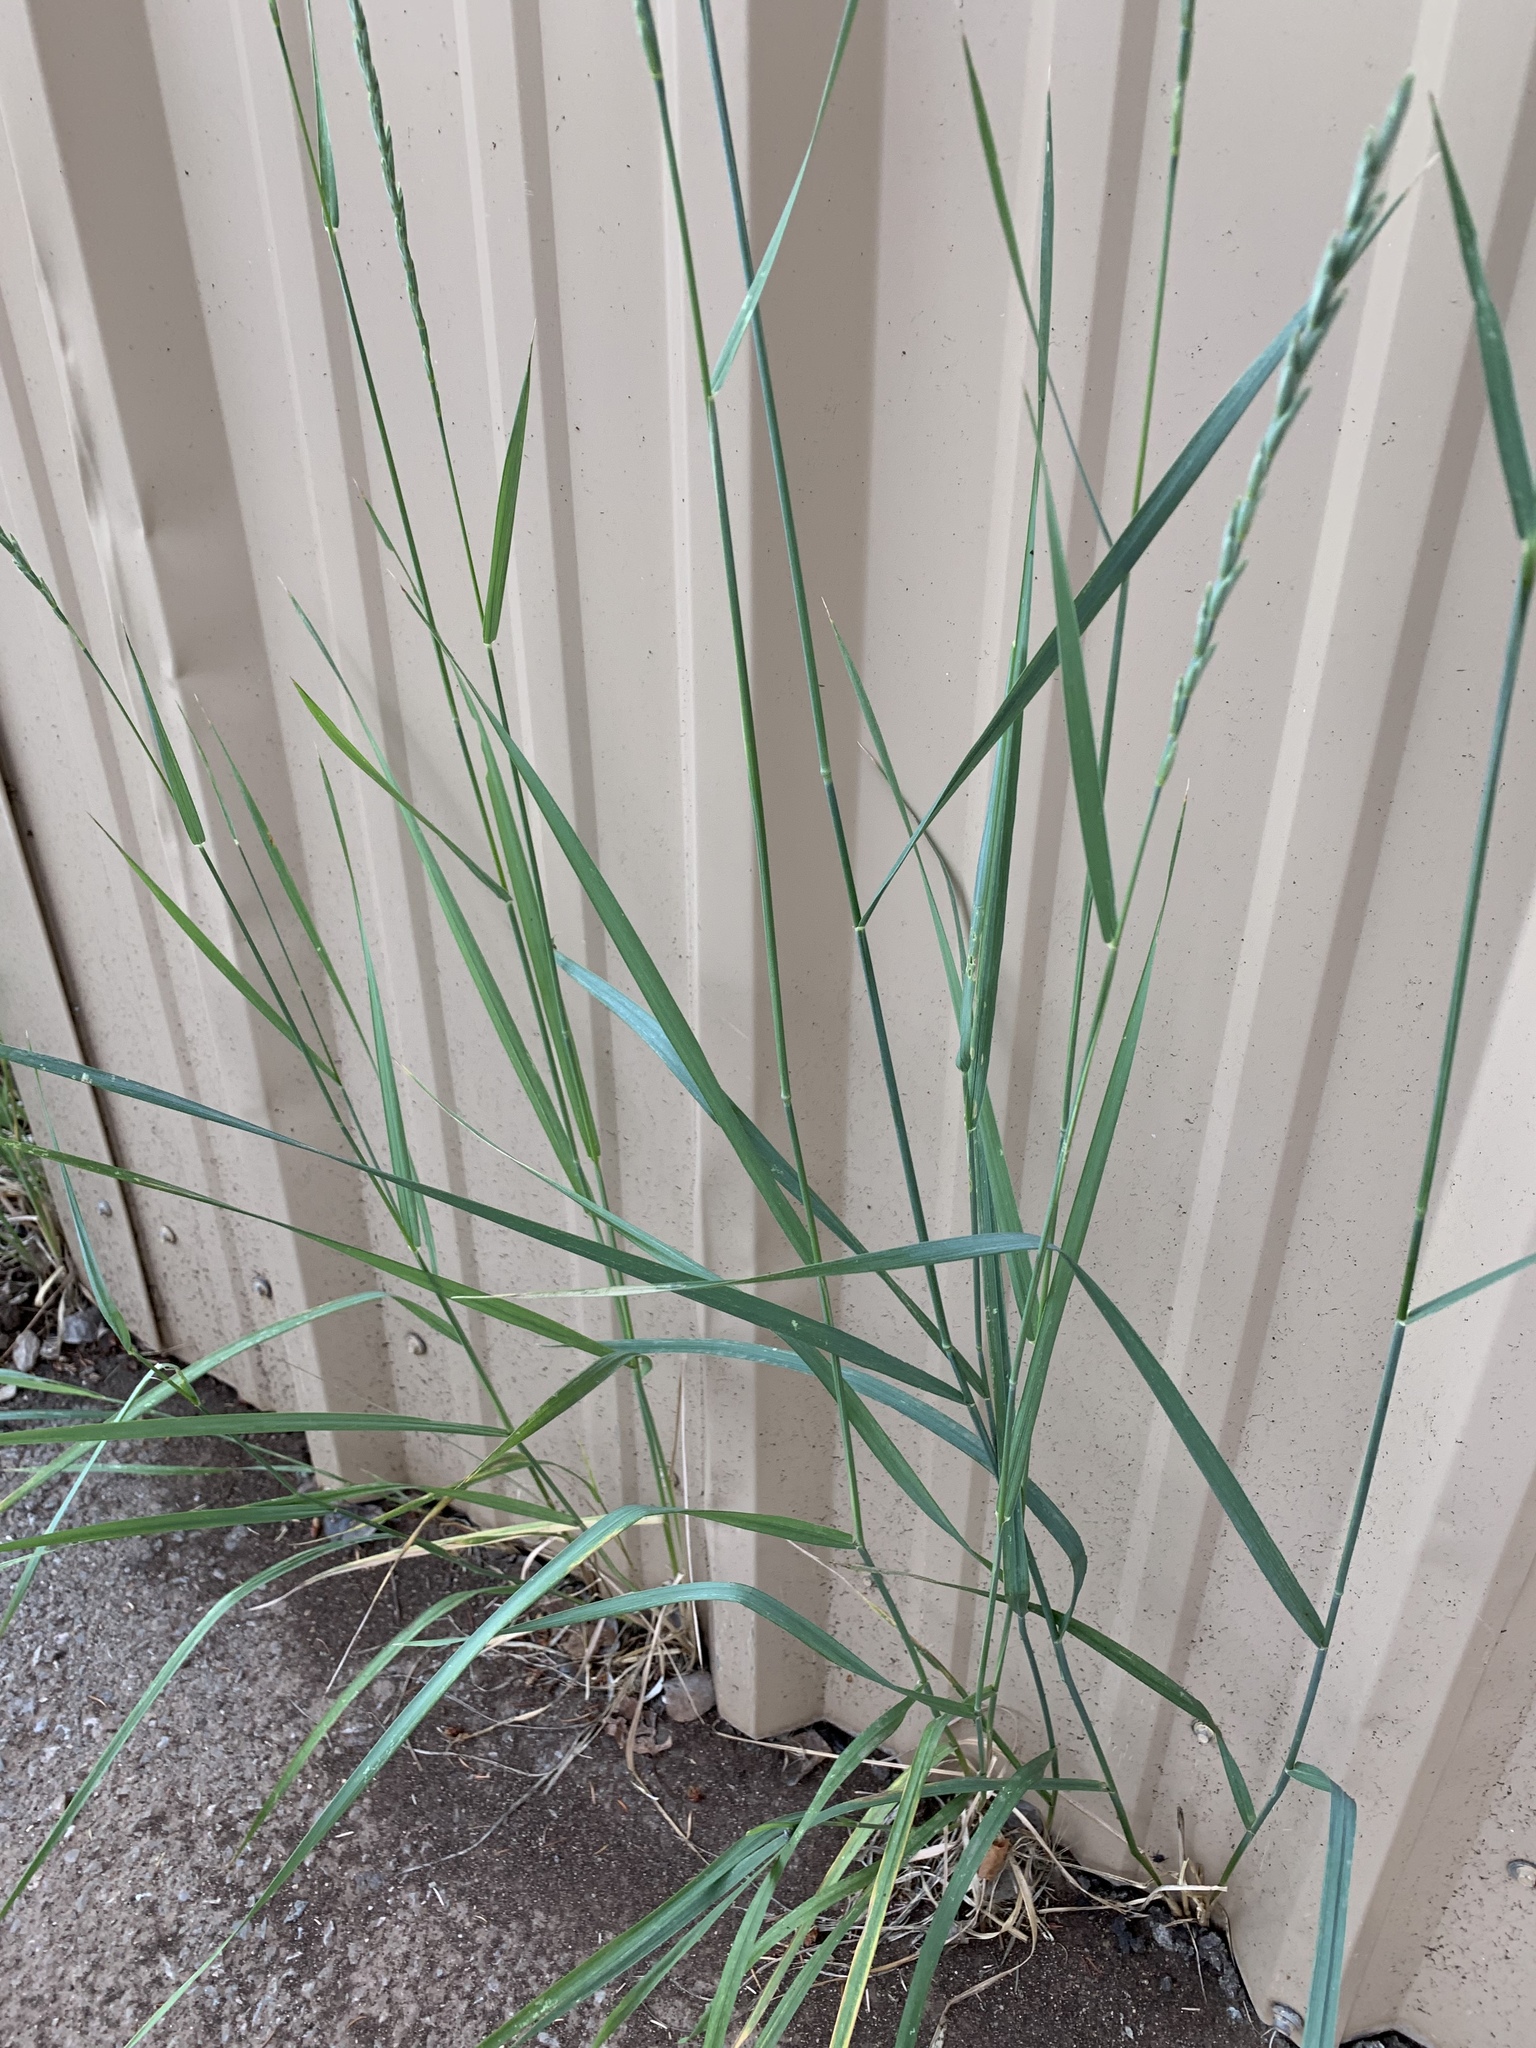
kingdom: Plantae
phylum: Tracheophyta
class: Liliopsida
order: Poales
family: Poaceae
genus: Thinopyrum
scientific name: Thinopyrum intermedium
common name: Intermediate wheatgrass
